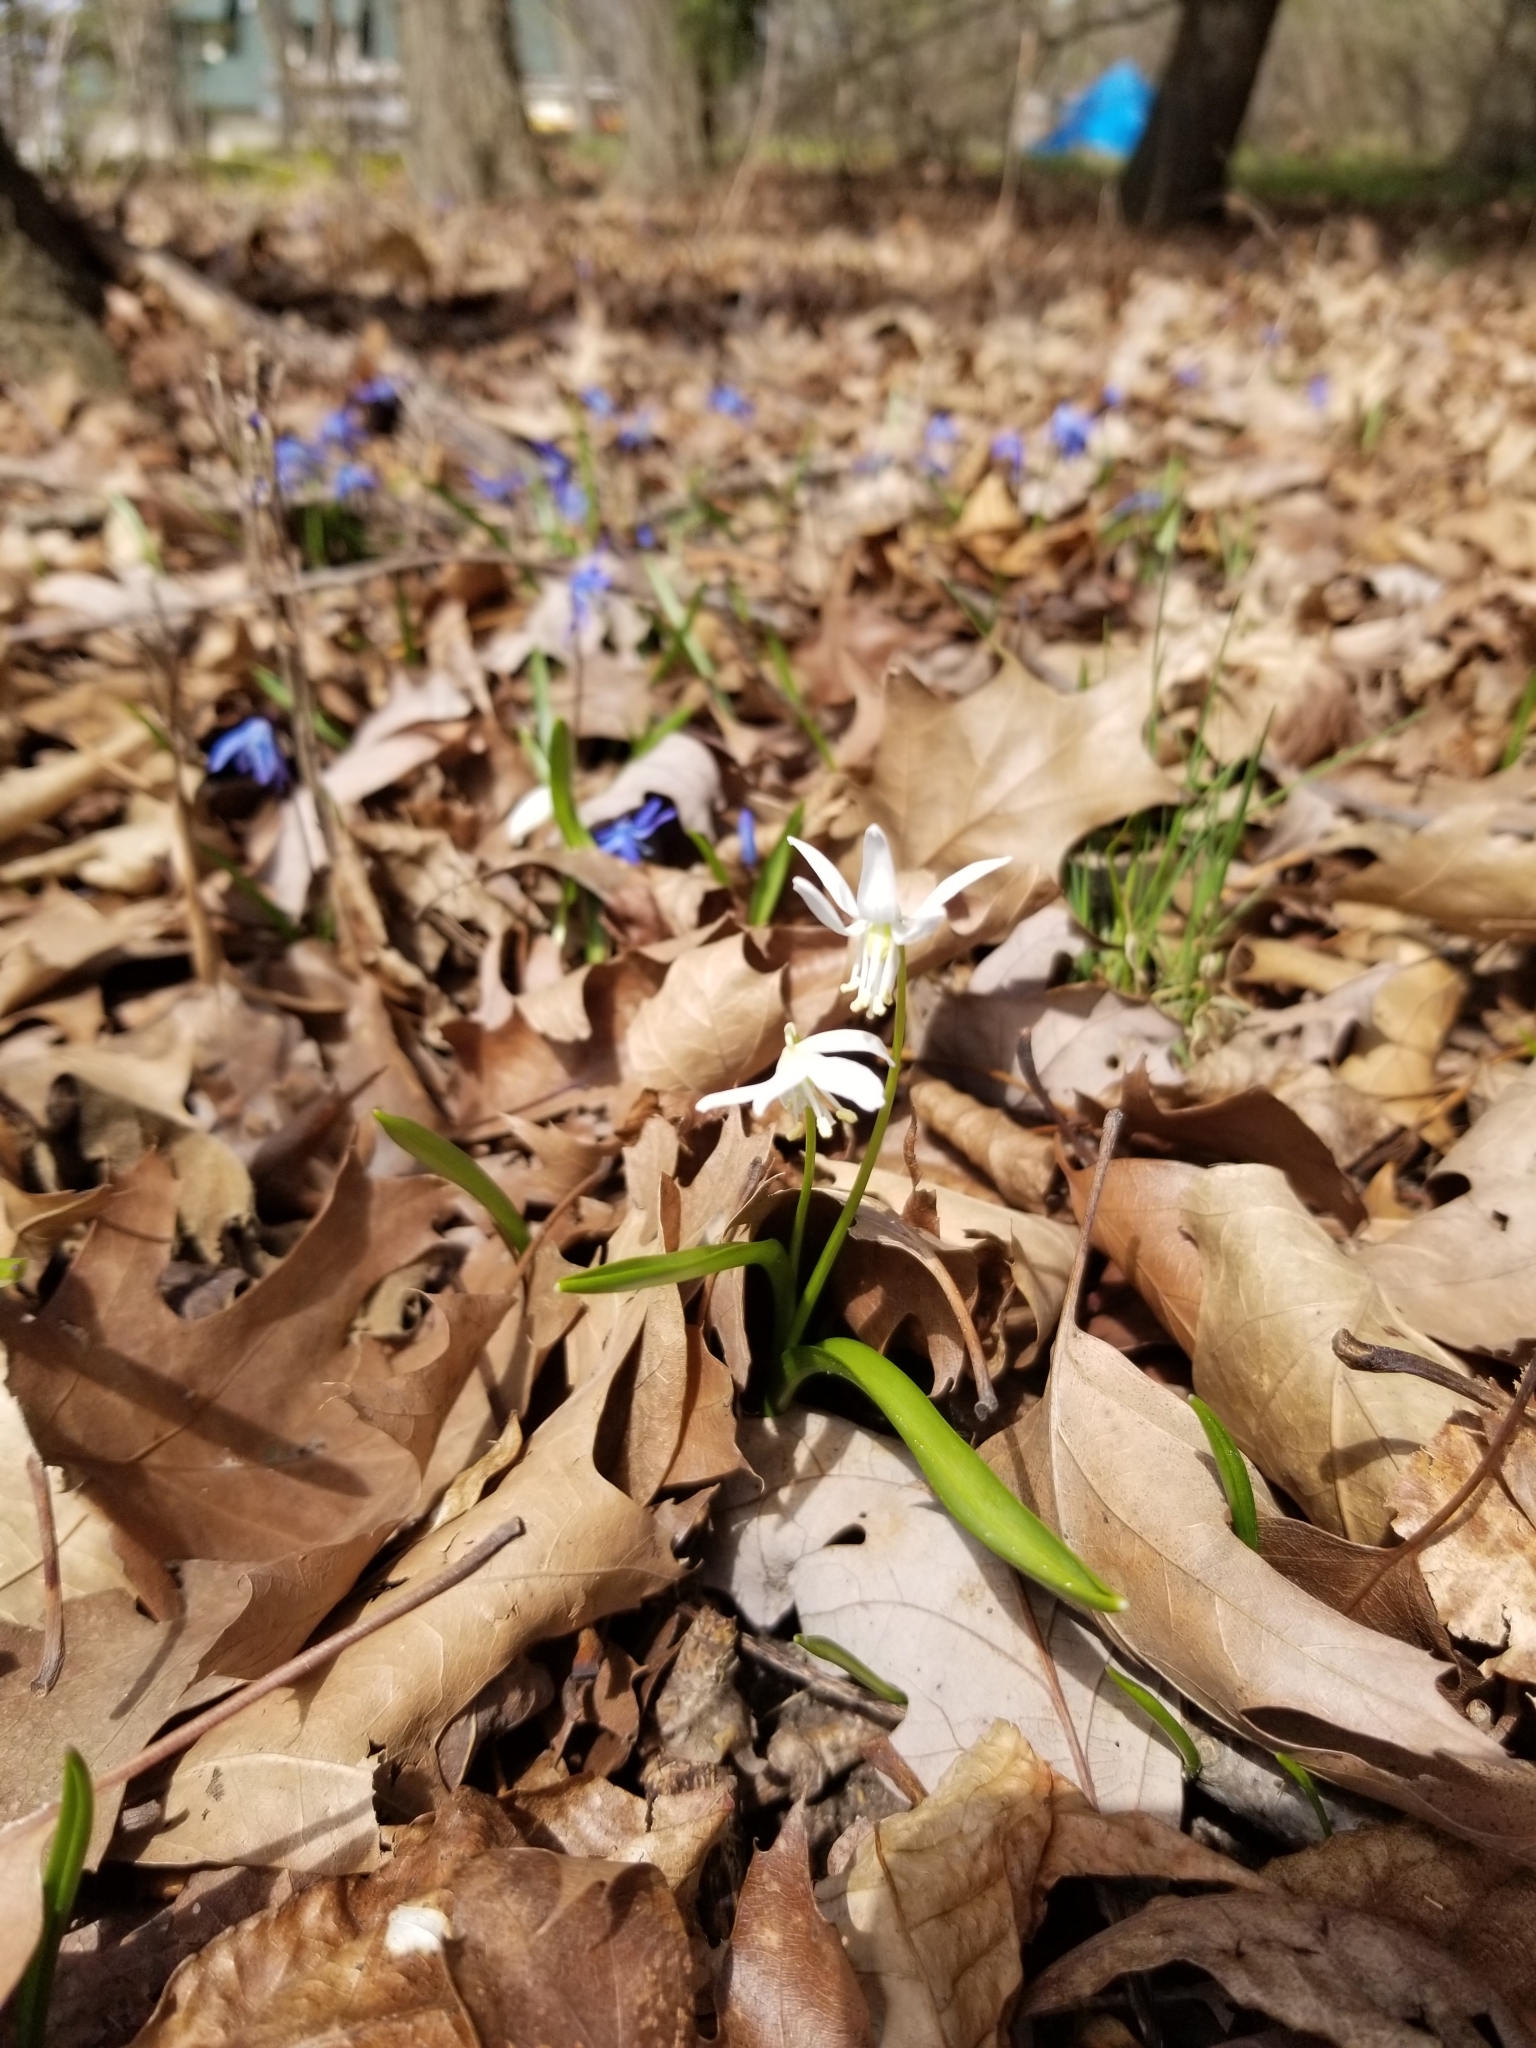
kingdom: Plantae
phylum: Tracheophyta
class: Liliopsida
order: Asparagales
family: Asparagaceae
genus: Scilla
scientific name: Scilla siberica
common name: Siberian squill
